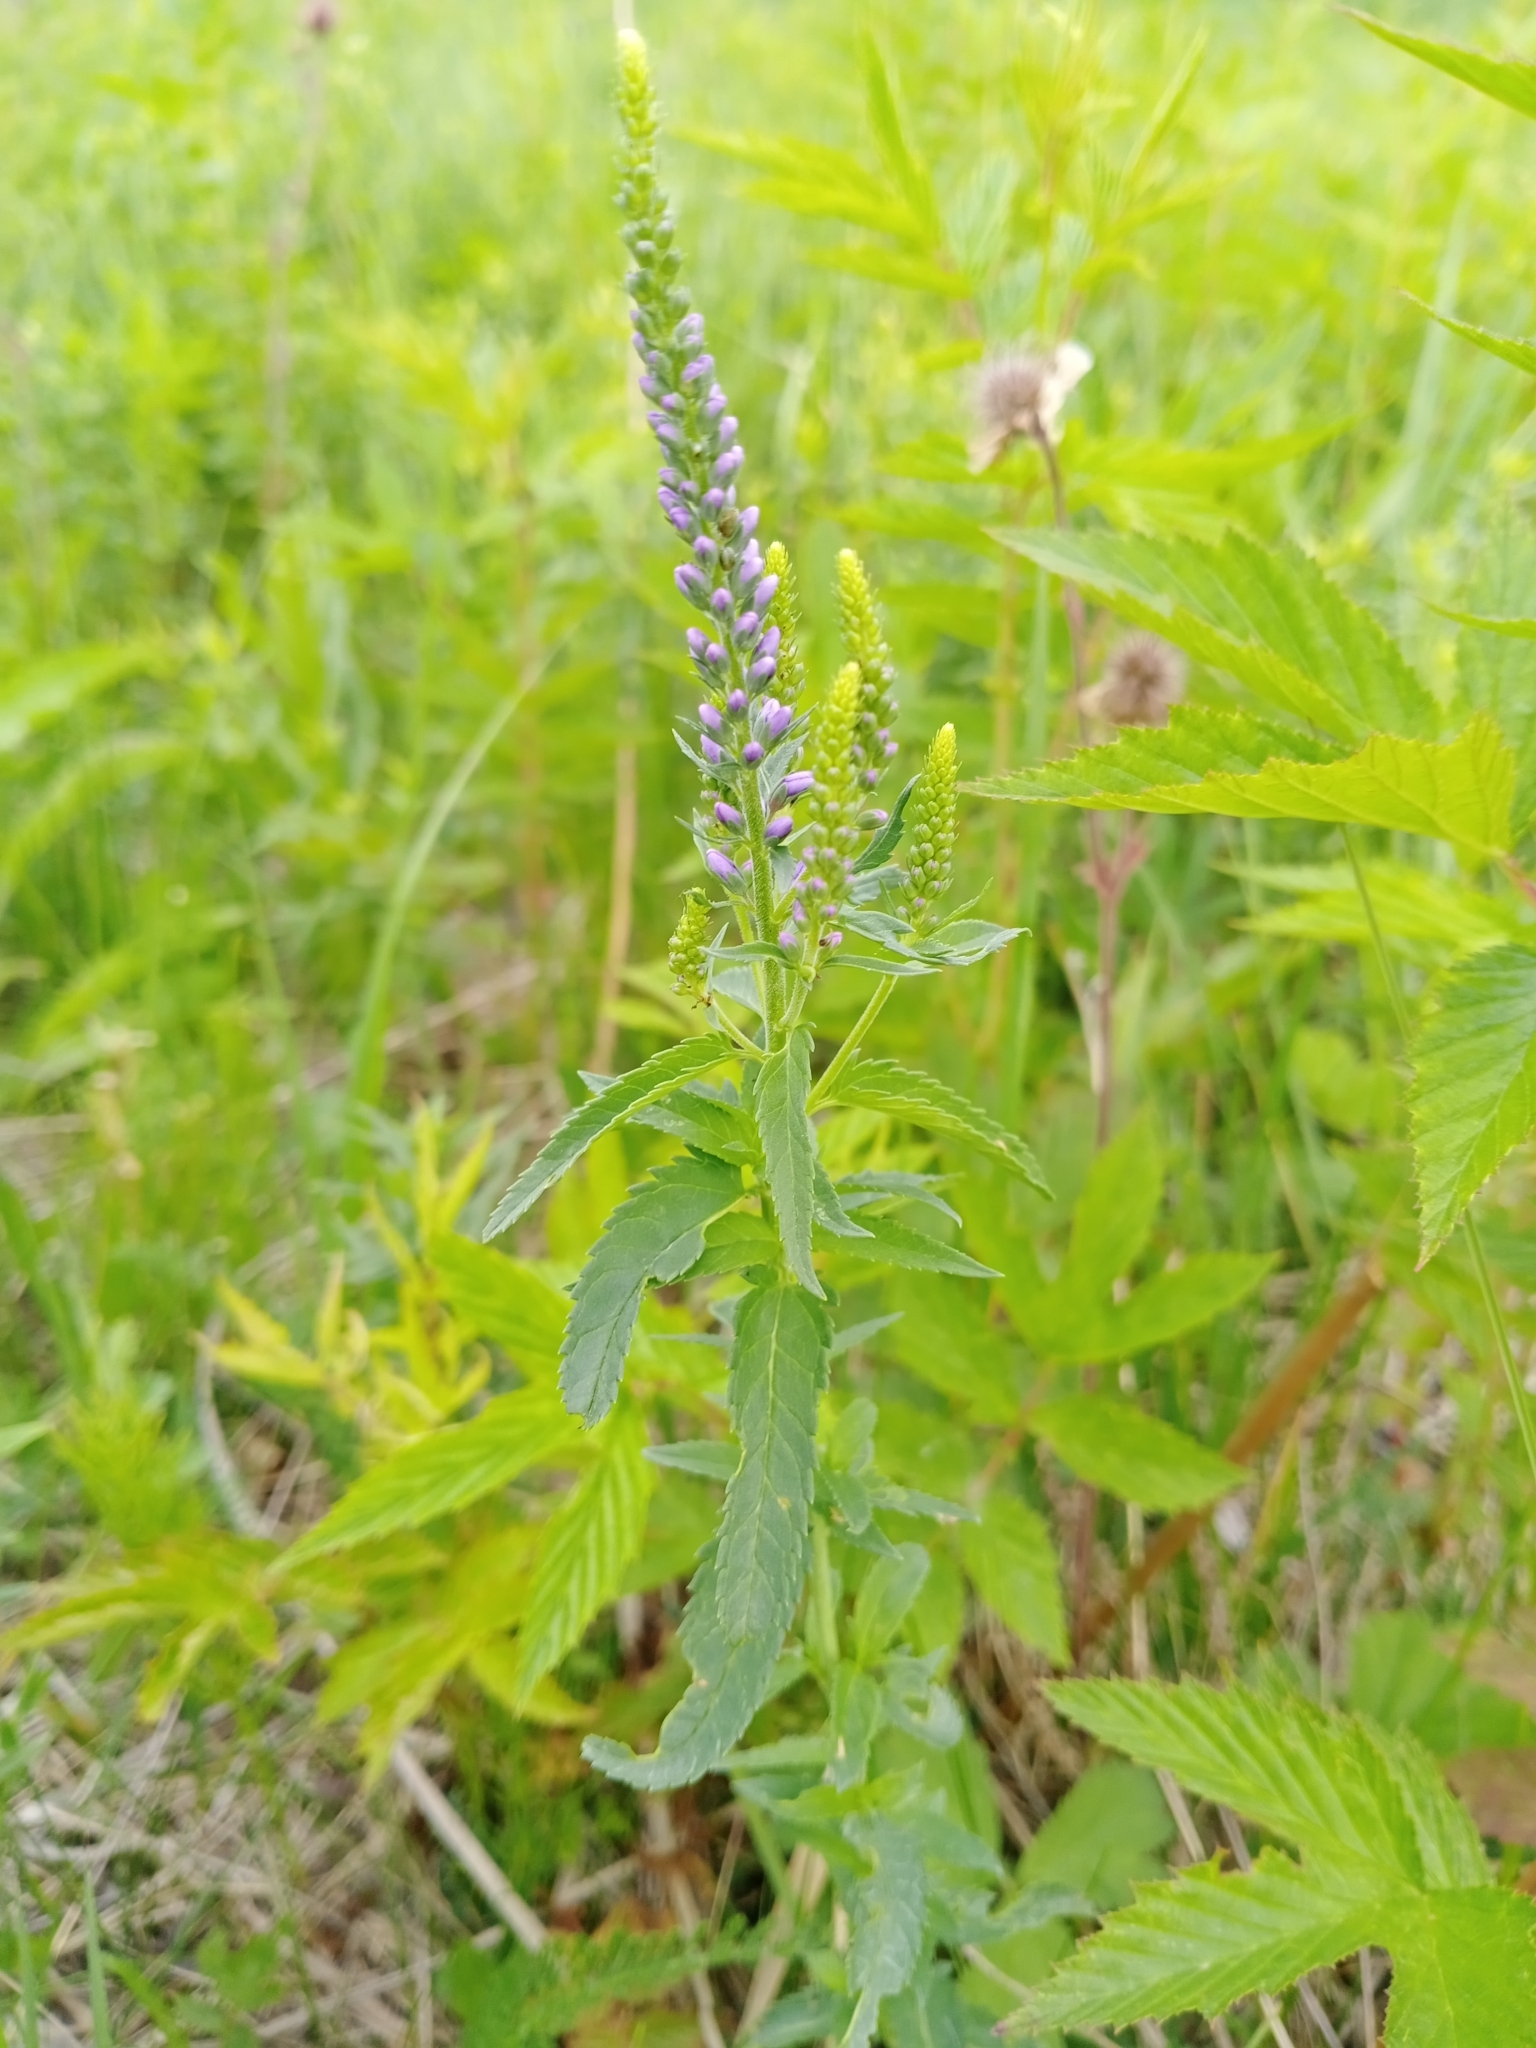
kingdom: Plantae
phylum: Tracheophyta
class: Magnoliopsida
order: Lamiales
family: Plantaginaceae
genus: Veronica
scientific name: Veronica longifolia
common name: Garden speedwell
